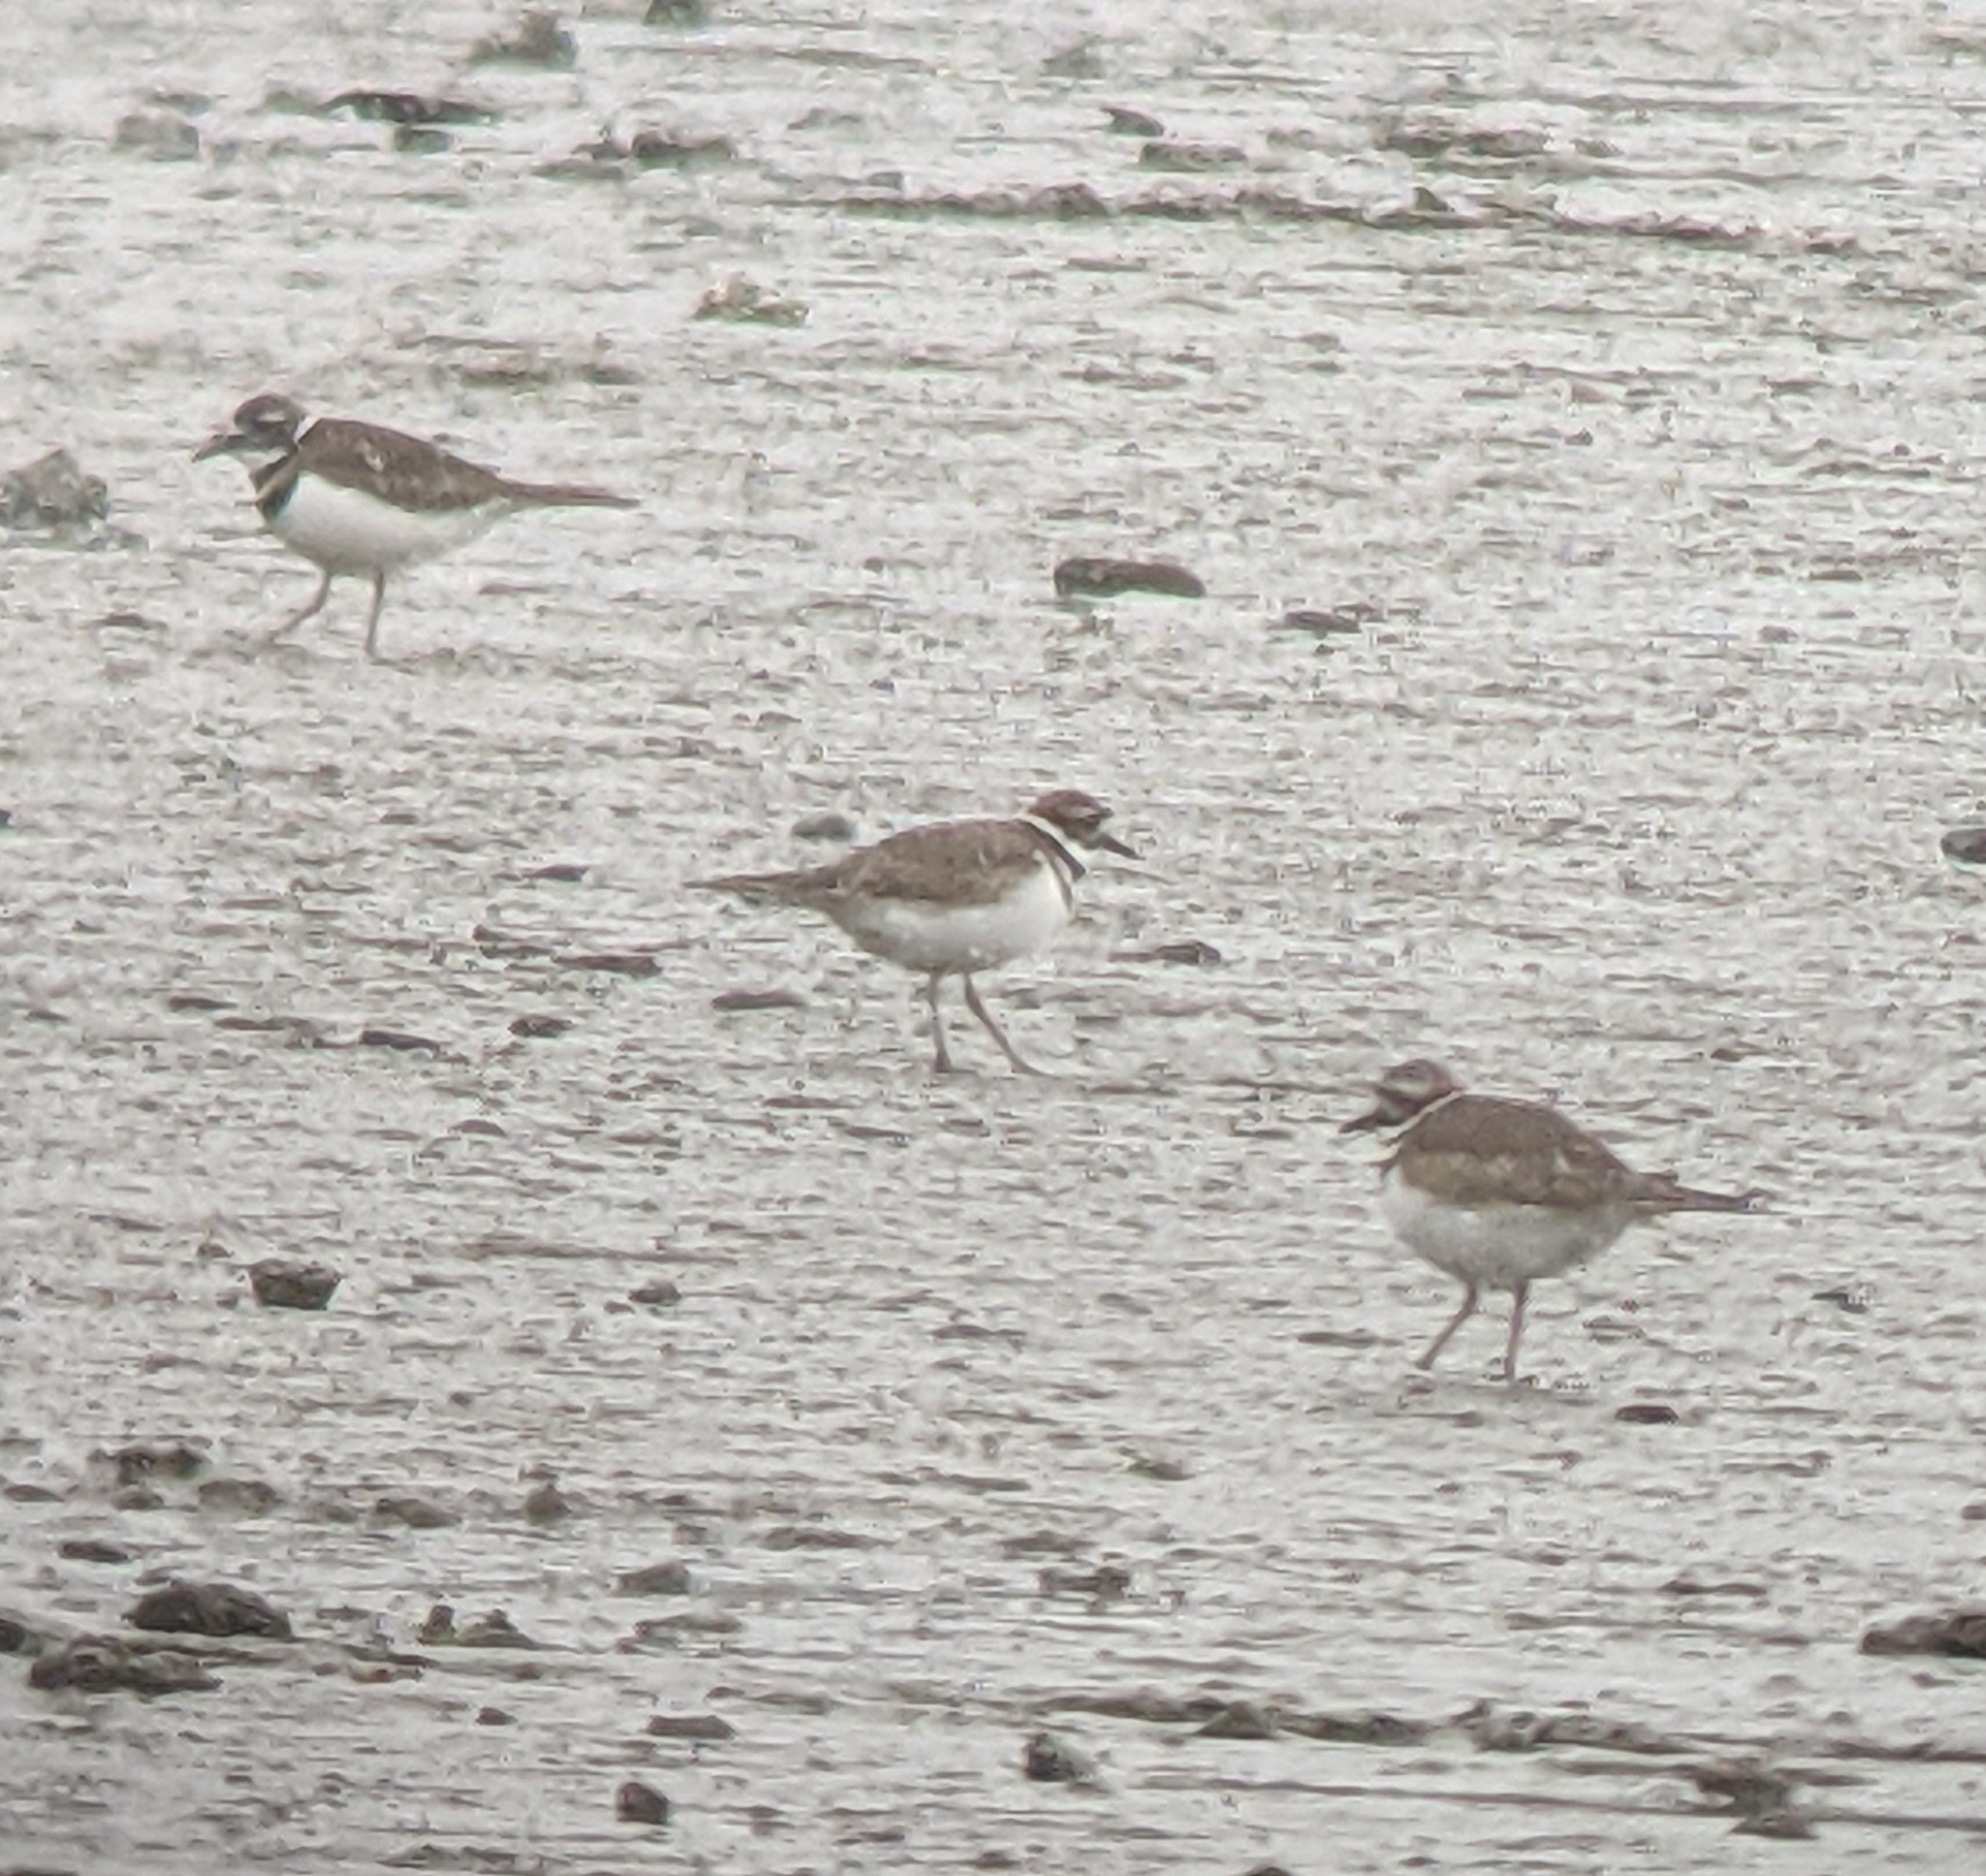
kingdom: Animalia
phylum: Chordata
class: Aves
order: Charadriiformes
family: Charadriidae
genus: Charadrius
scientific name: Charadrius vociferus
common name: Killdeer
